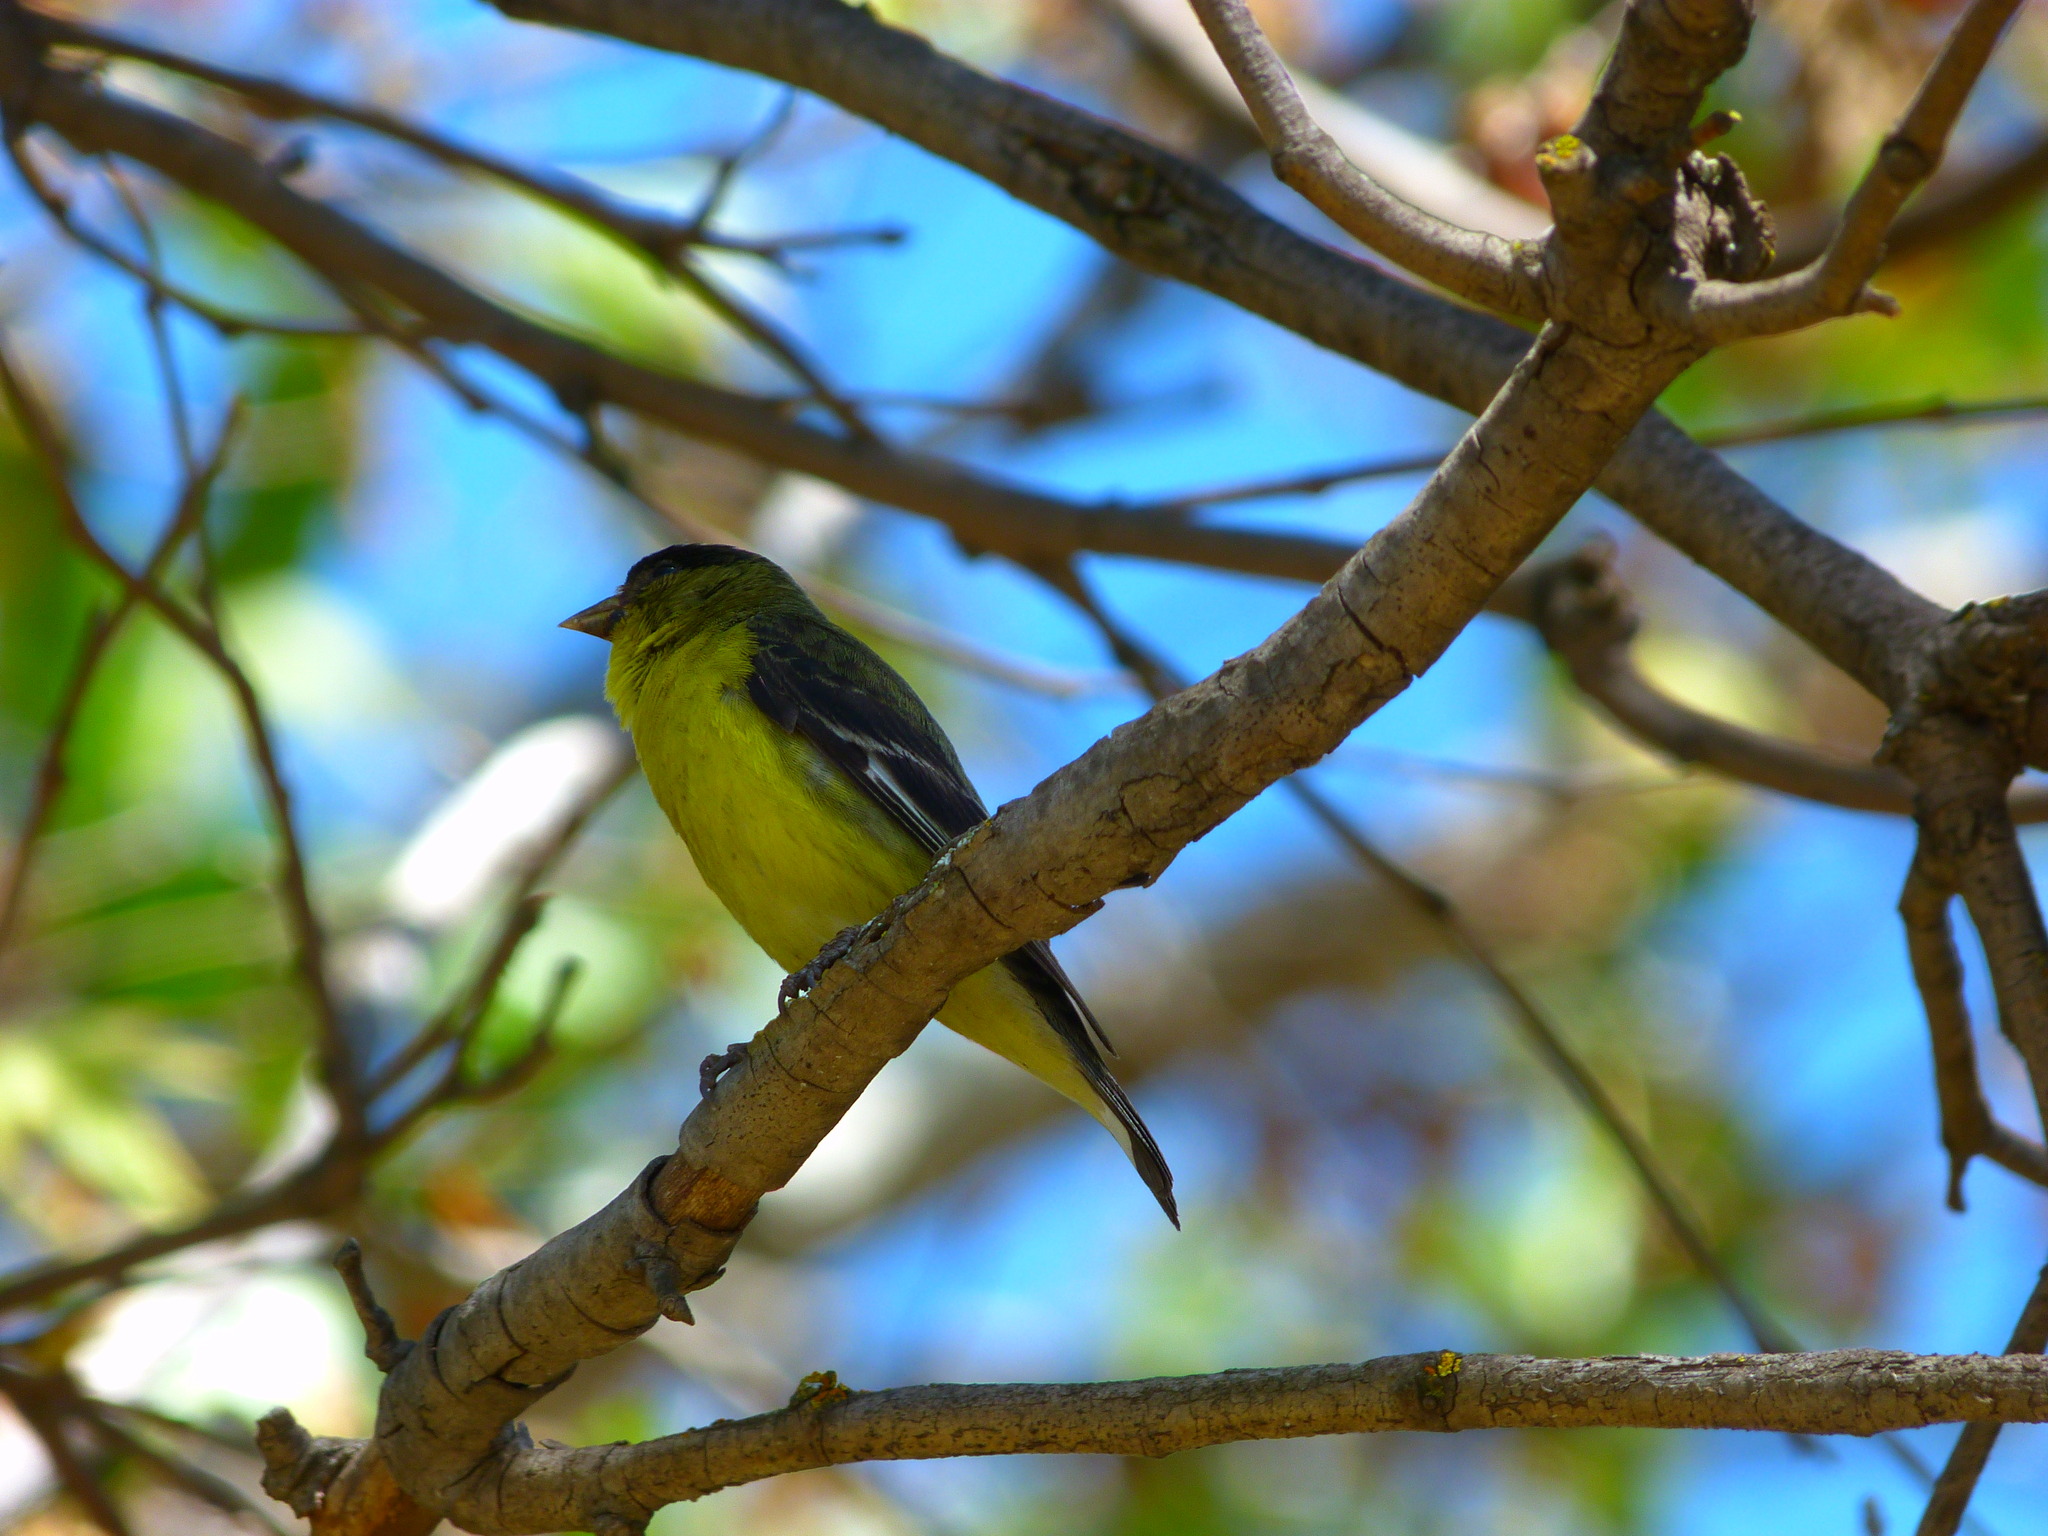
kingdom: Animalia
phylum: Chordata
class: Aves
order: Passeriformes
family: Fringillidae
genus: Spinus
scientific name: Spinus psaltria
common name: Lesser goldfinch
